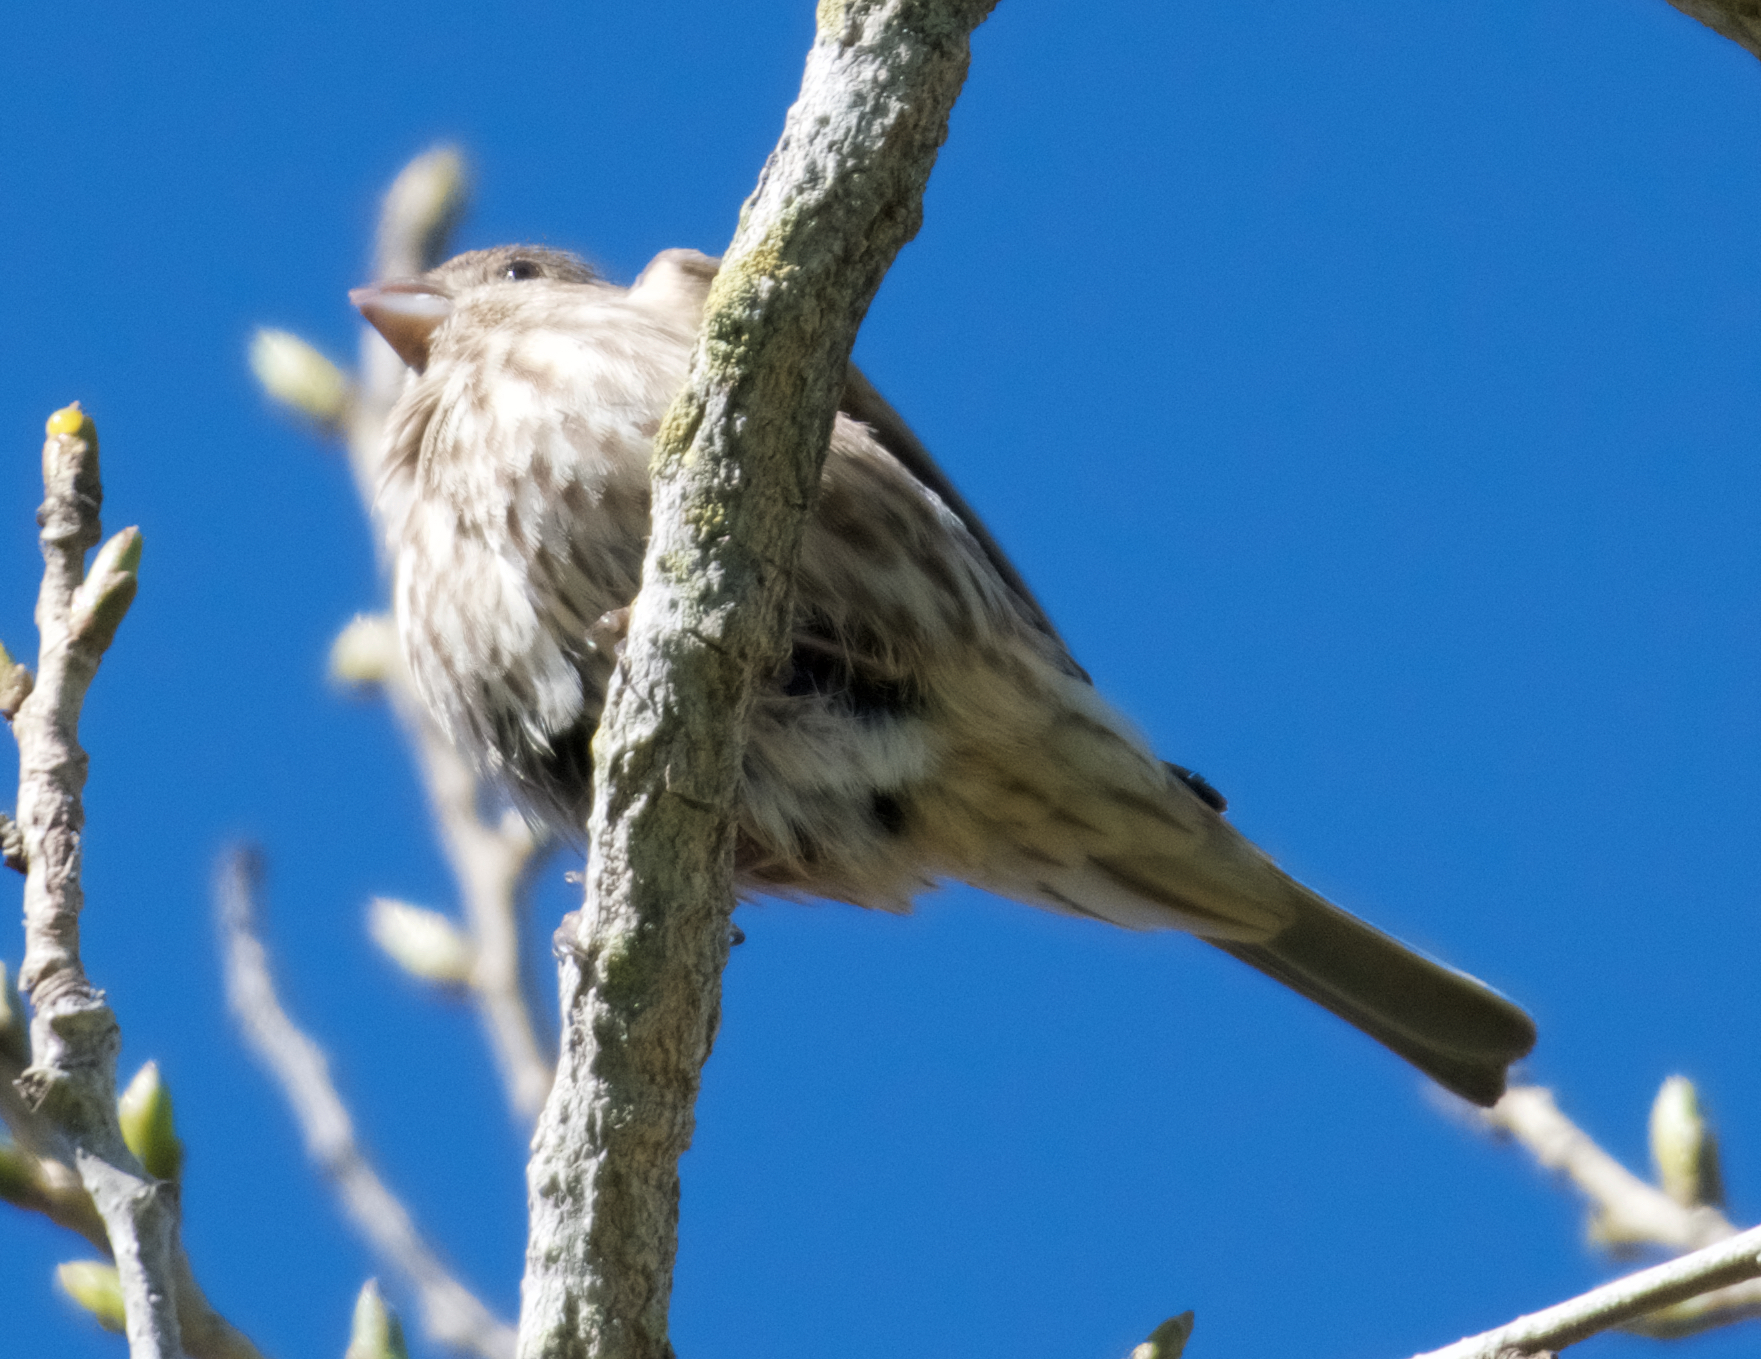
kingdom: Animalia
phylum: Chordata
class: Aves
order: Passeriformes
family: Fringillidae
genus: Haemorhous
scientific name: Haemorhous mexicanus
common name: House finch
